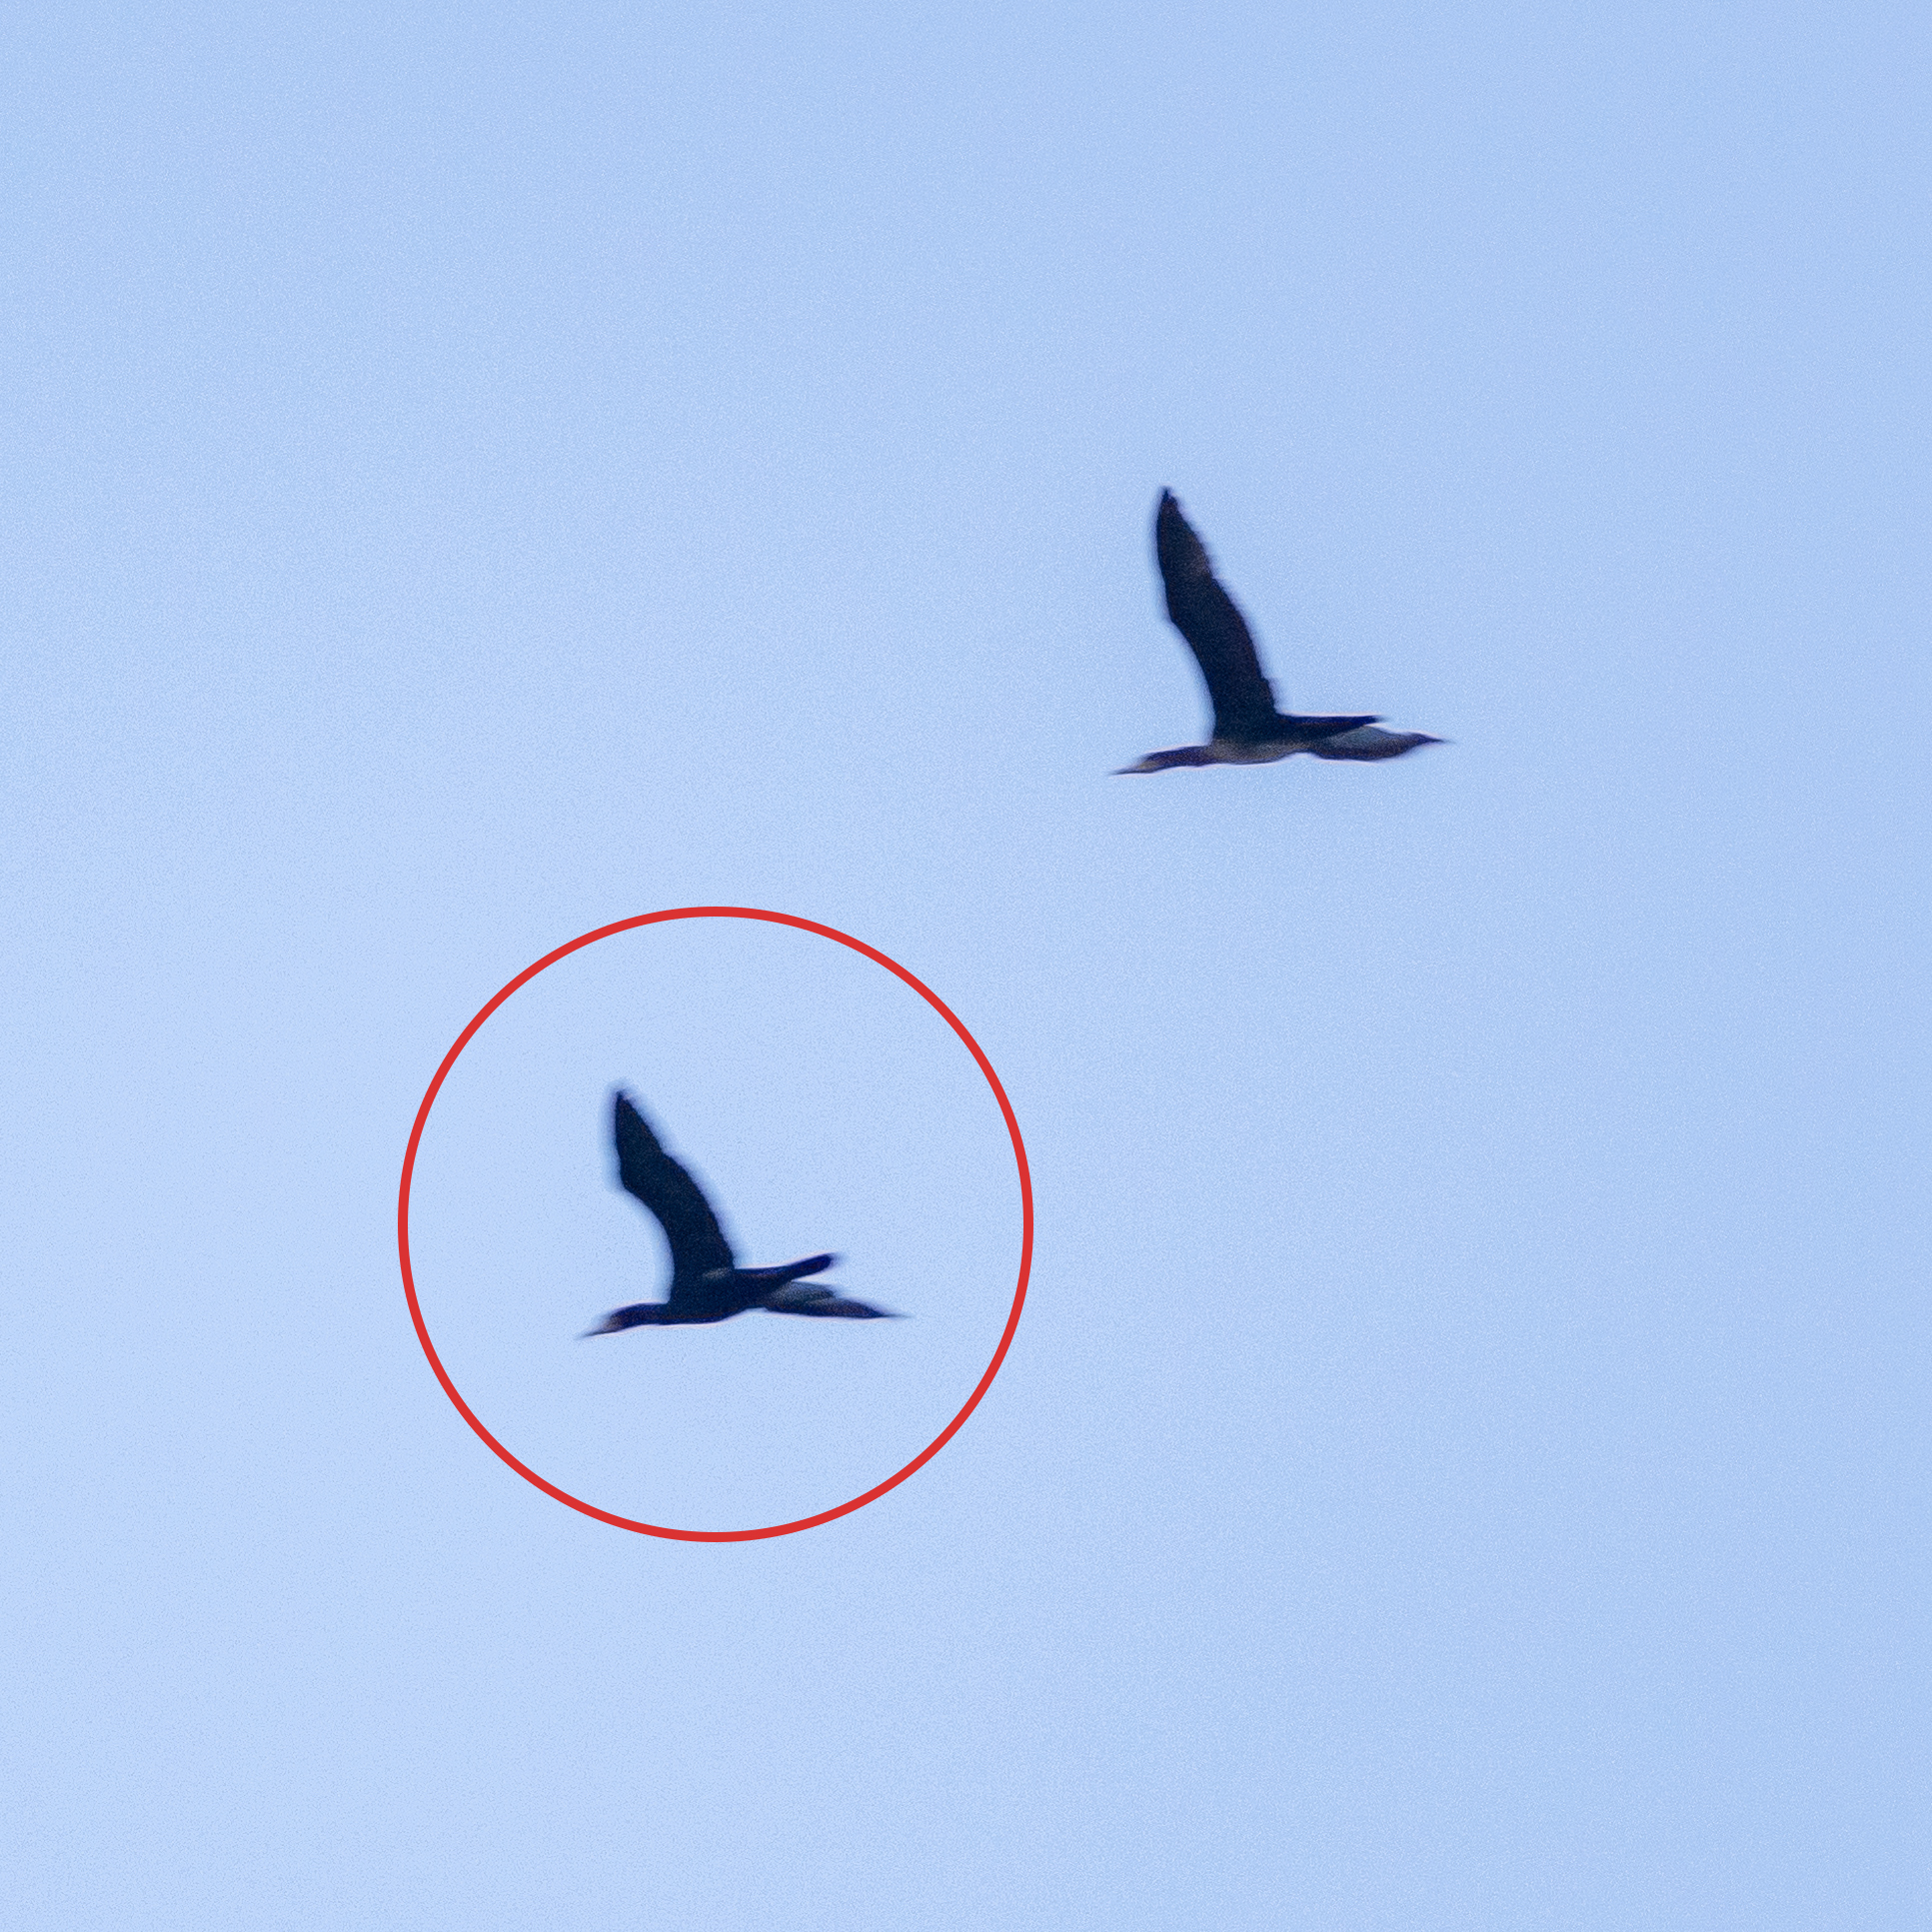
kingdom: Animalia
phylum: Chordata
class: Aves
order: Suliformes
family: Phalacrocoracidae
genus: Phalacrocorax
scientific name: Phalacrocorax carbo
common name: Great cormorant
